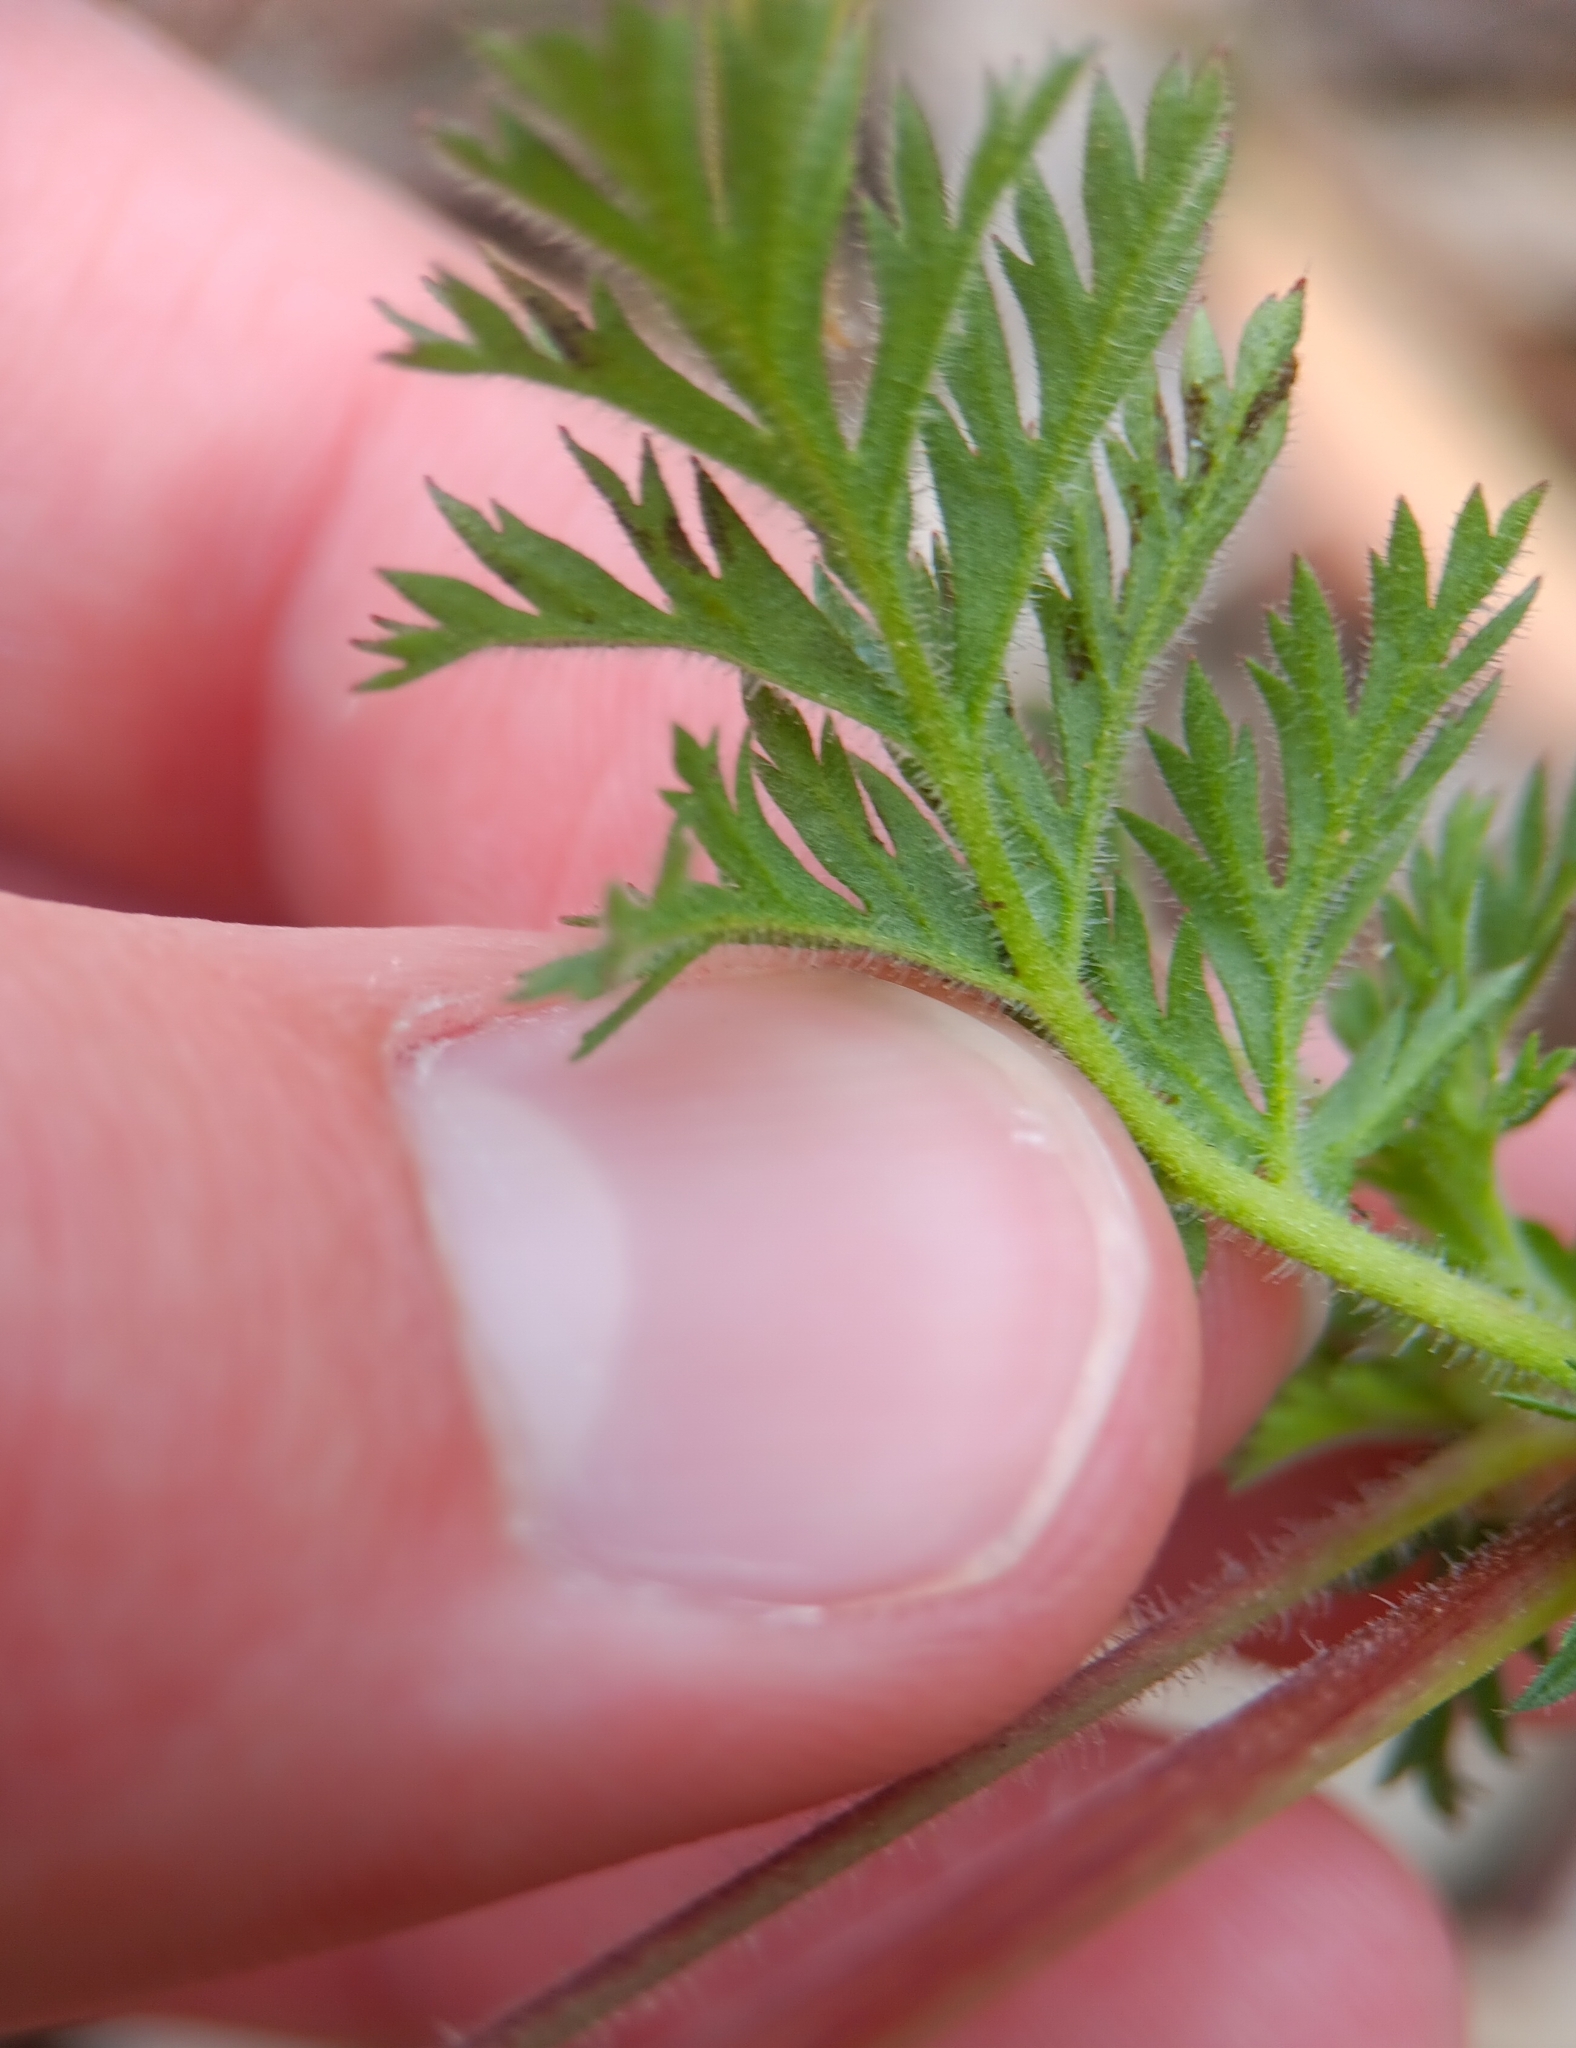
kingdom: Plantae
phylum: Tracheophyta
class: Magnoliopsida
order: Geraniales
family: Geraniaceae
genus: Erodium
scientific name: Erodium cicutarium
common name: Common stork's-bill
